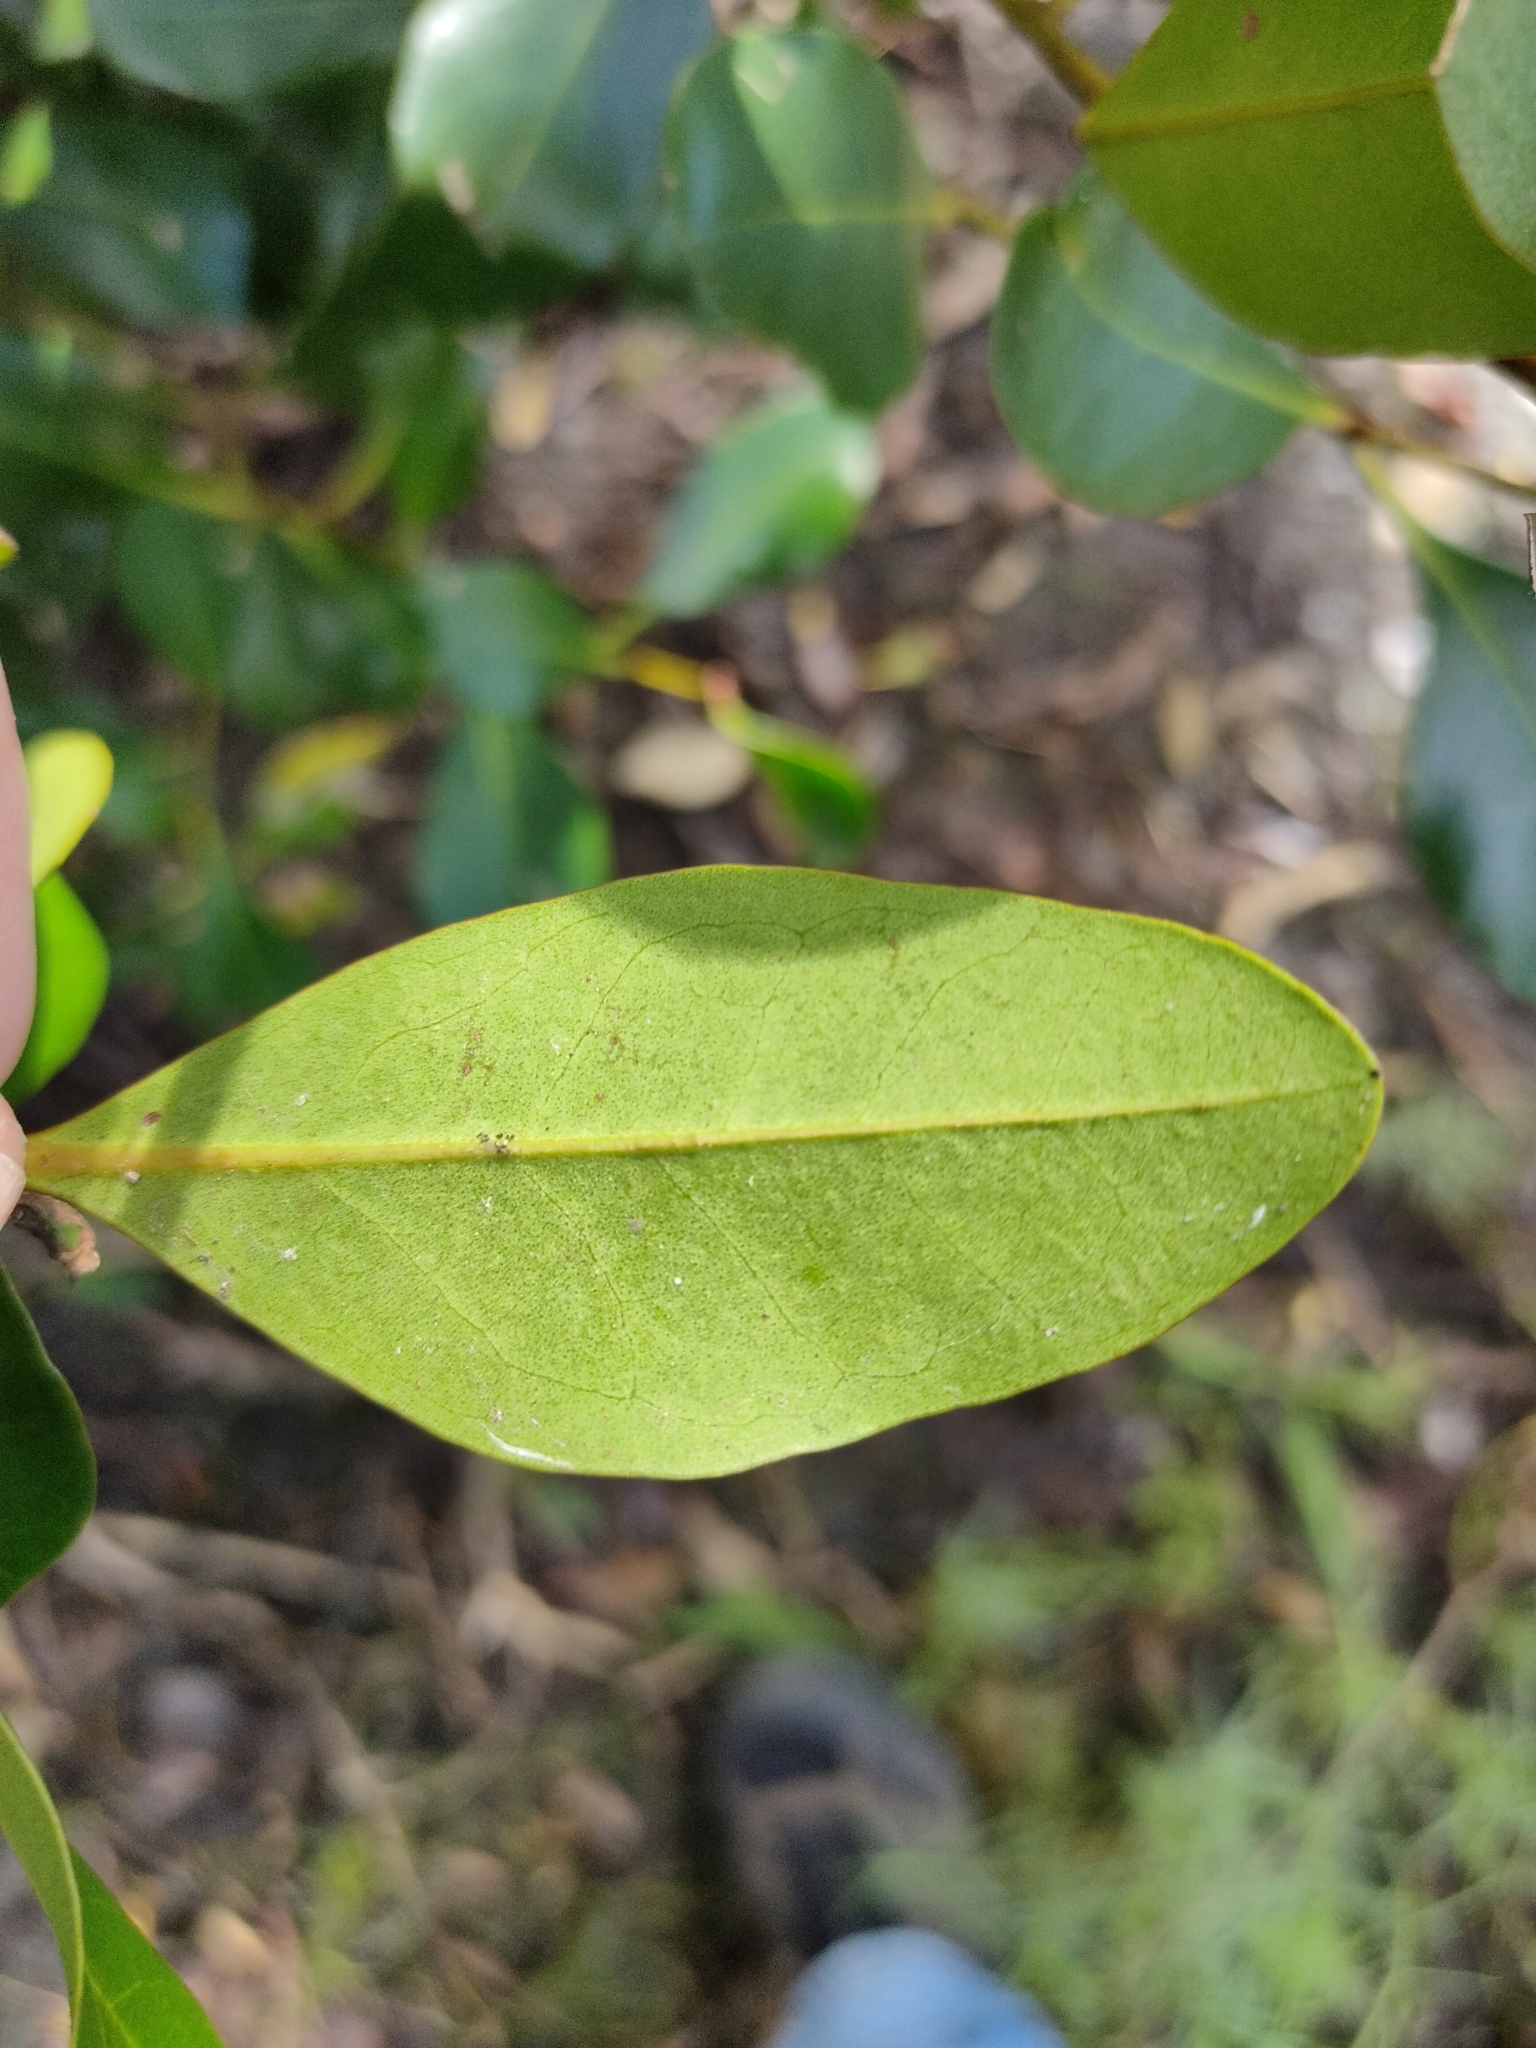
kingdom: Plantae
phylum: Tracheophyta
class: Magnoliopsida
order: Ericales
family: Primulaceae
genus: Aegiceras
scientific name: Aegiceras corniculatum
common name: River mangrove
